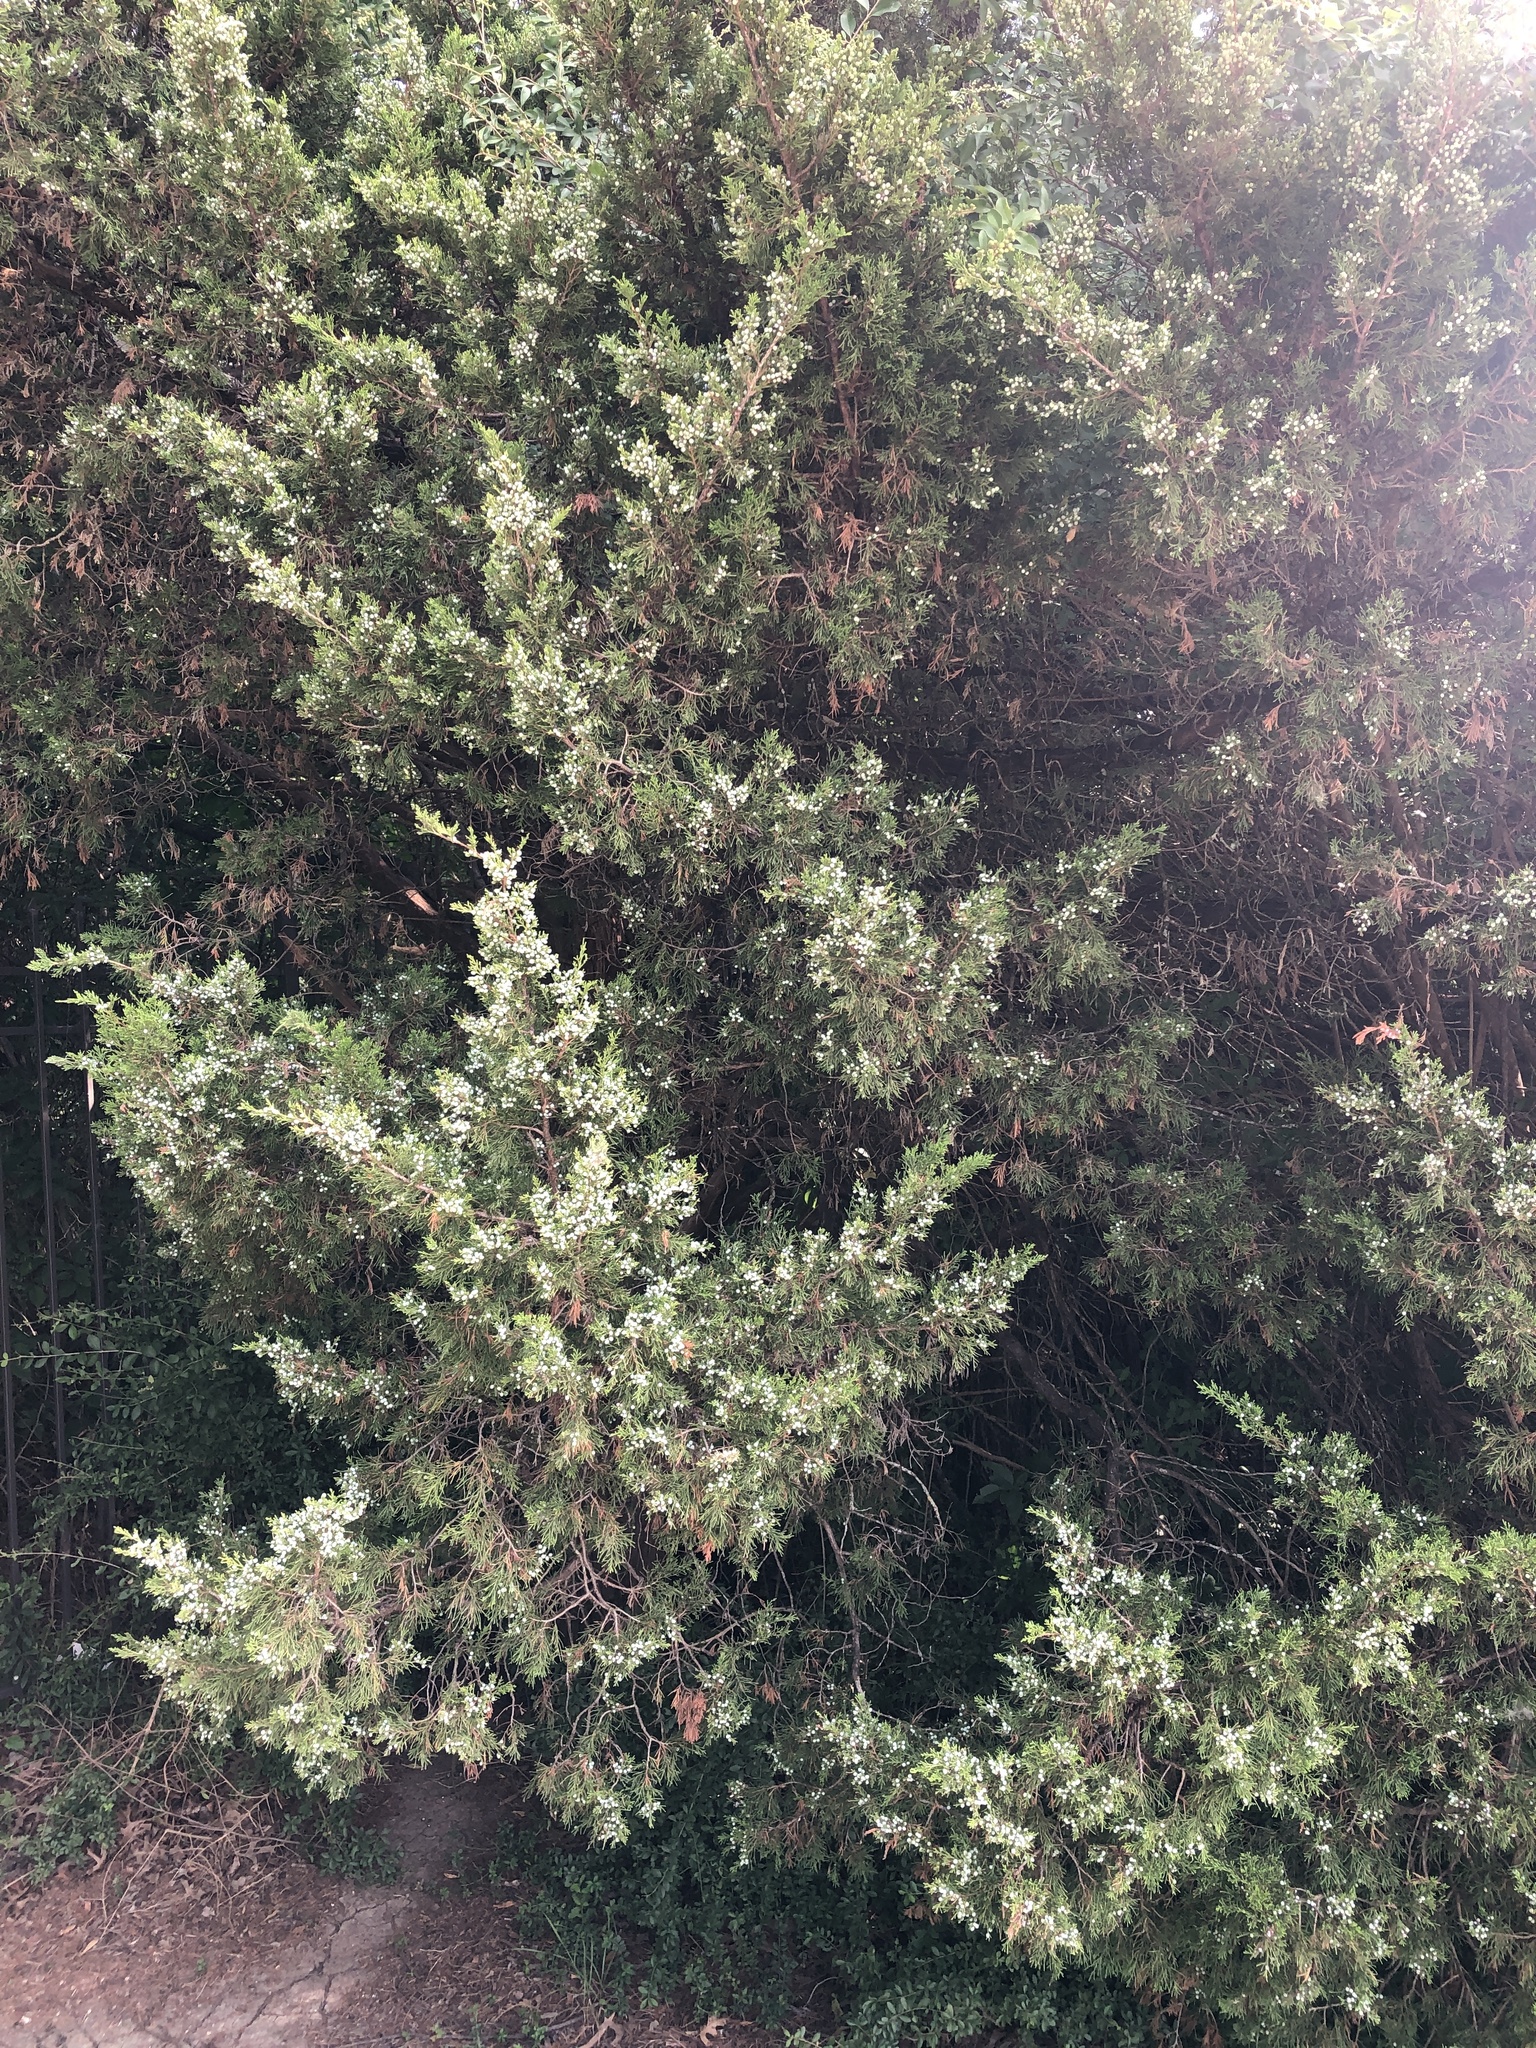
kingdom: Plantae
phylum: Tracheophyta
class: Pinopsida
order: Pinales
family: Cupressaceae
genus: Juniperus
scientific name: Juniperus virginiana
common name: Red juniper
